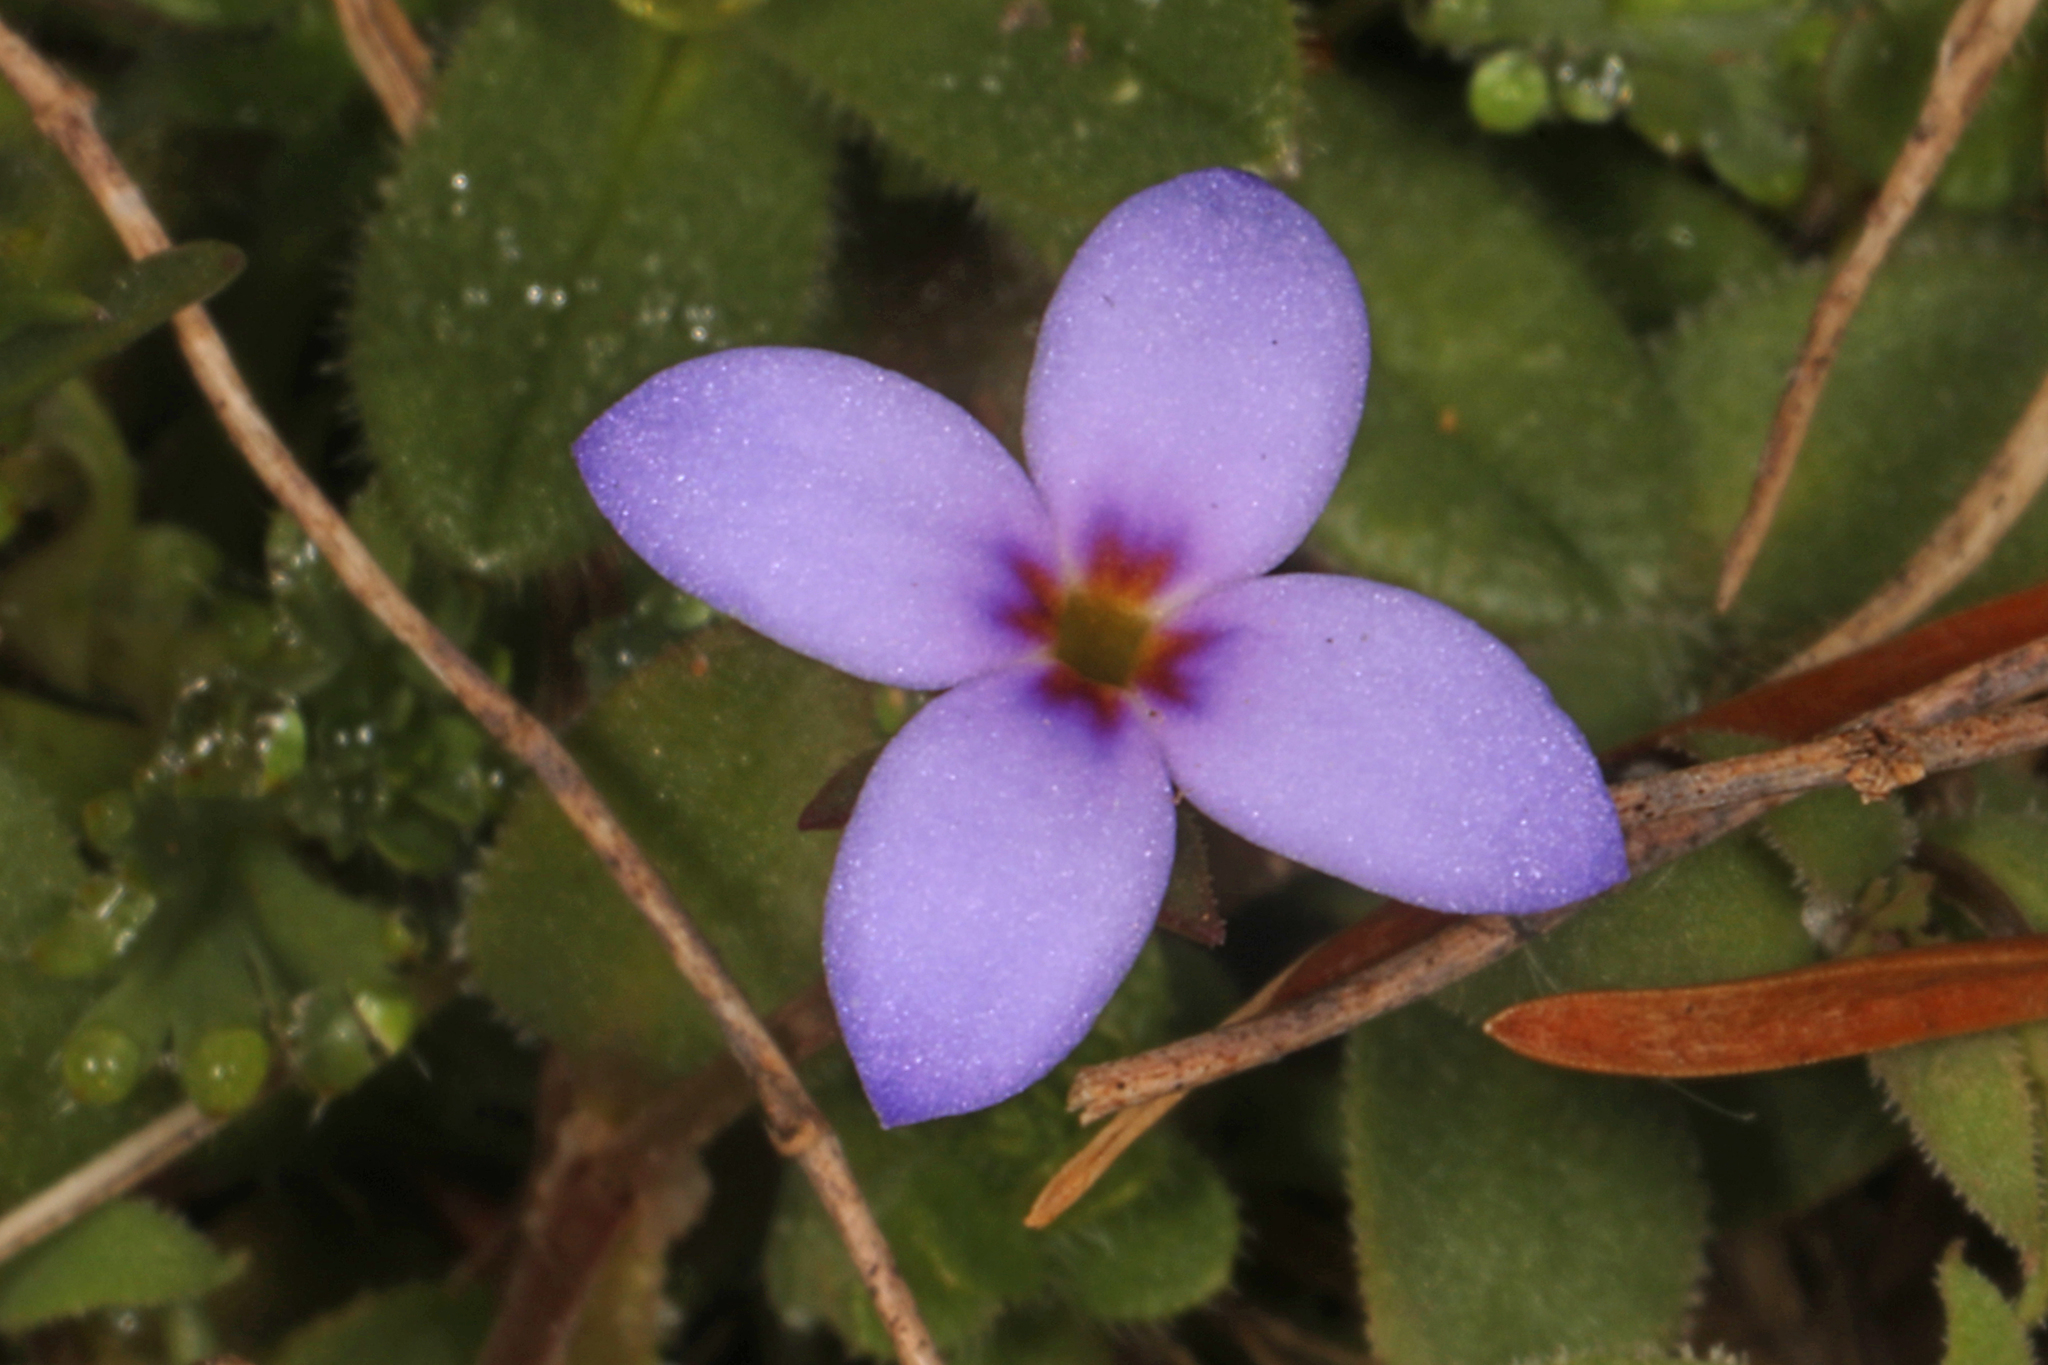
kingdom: Plantae
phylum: Tracheophyta
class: Magnoliopsida
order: Gentianales
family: Rubiaceae
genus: Houstonia
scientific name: Houstonia pusilla
